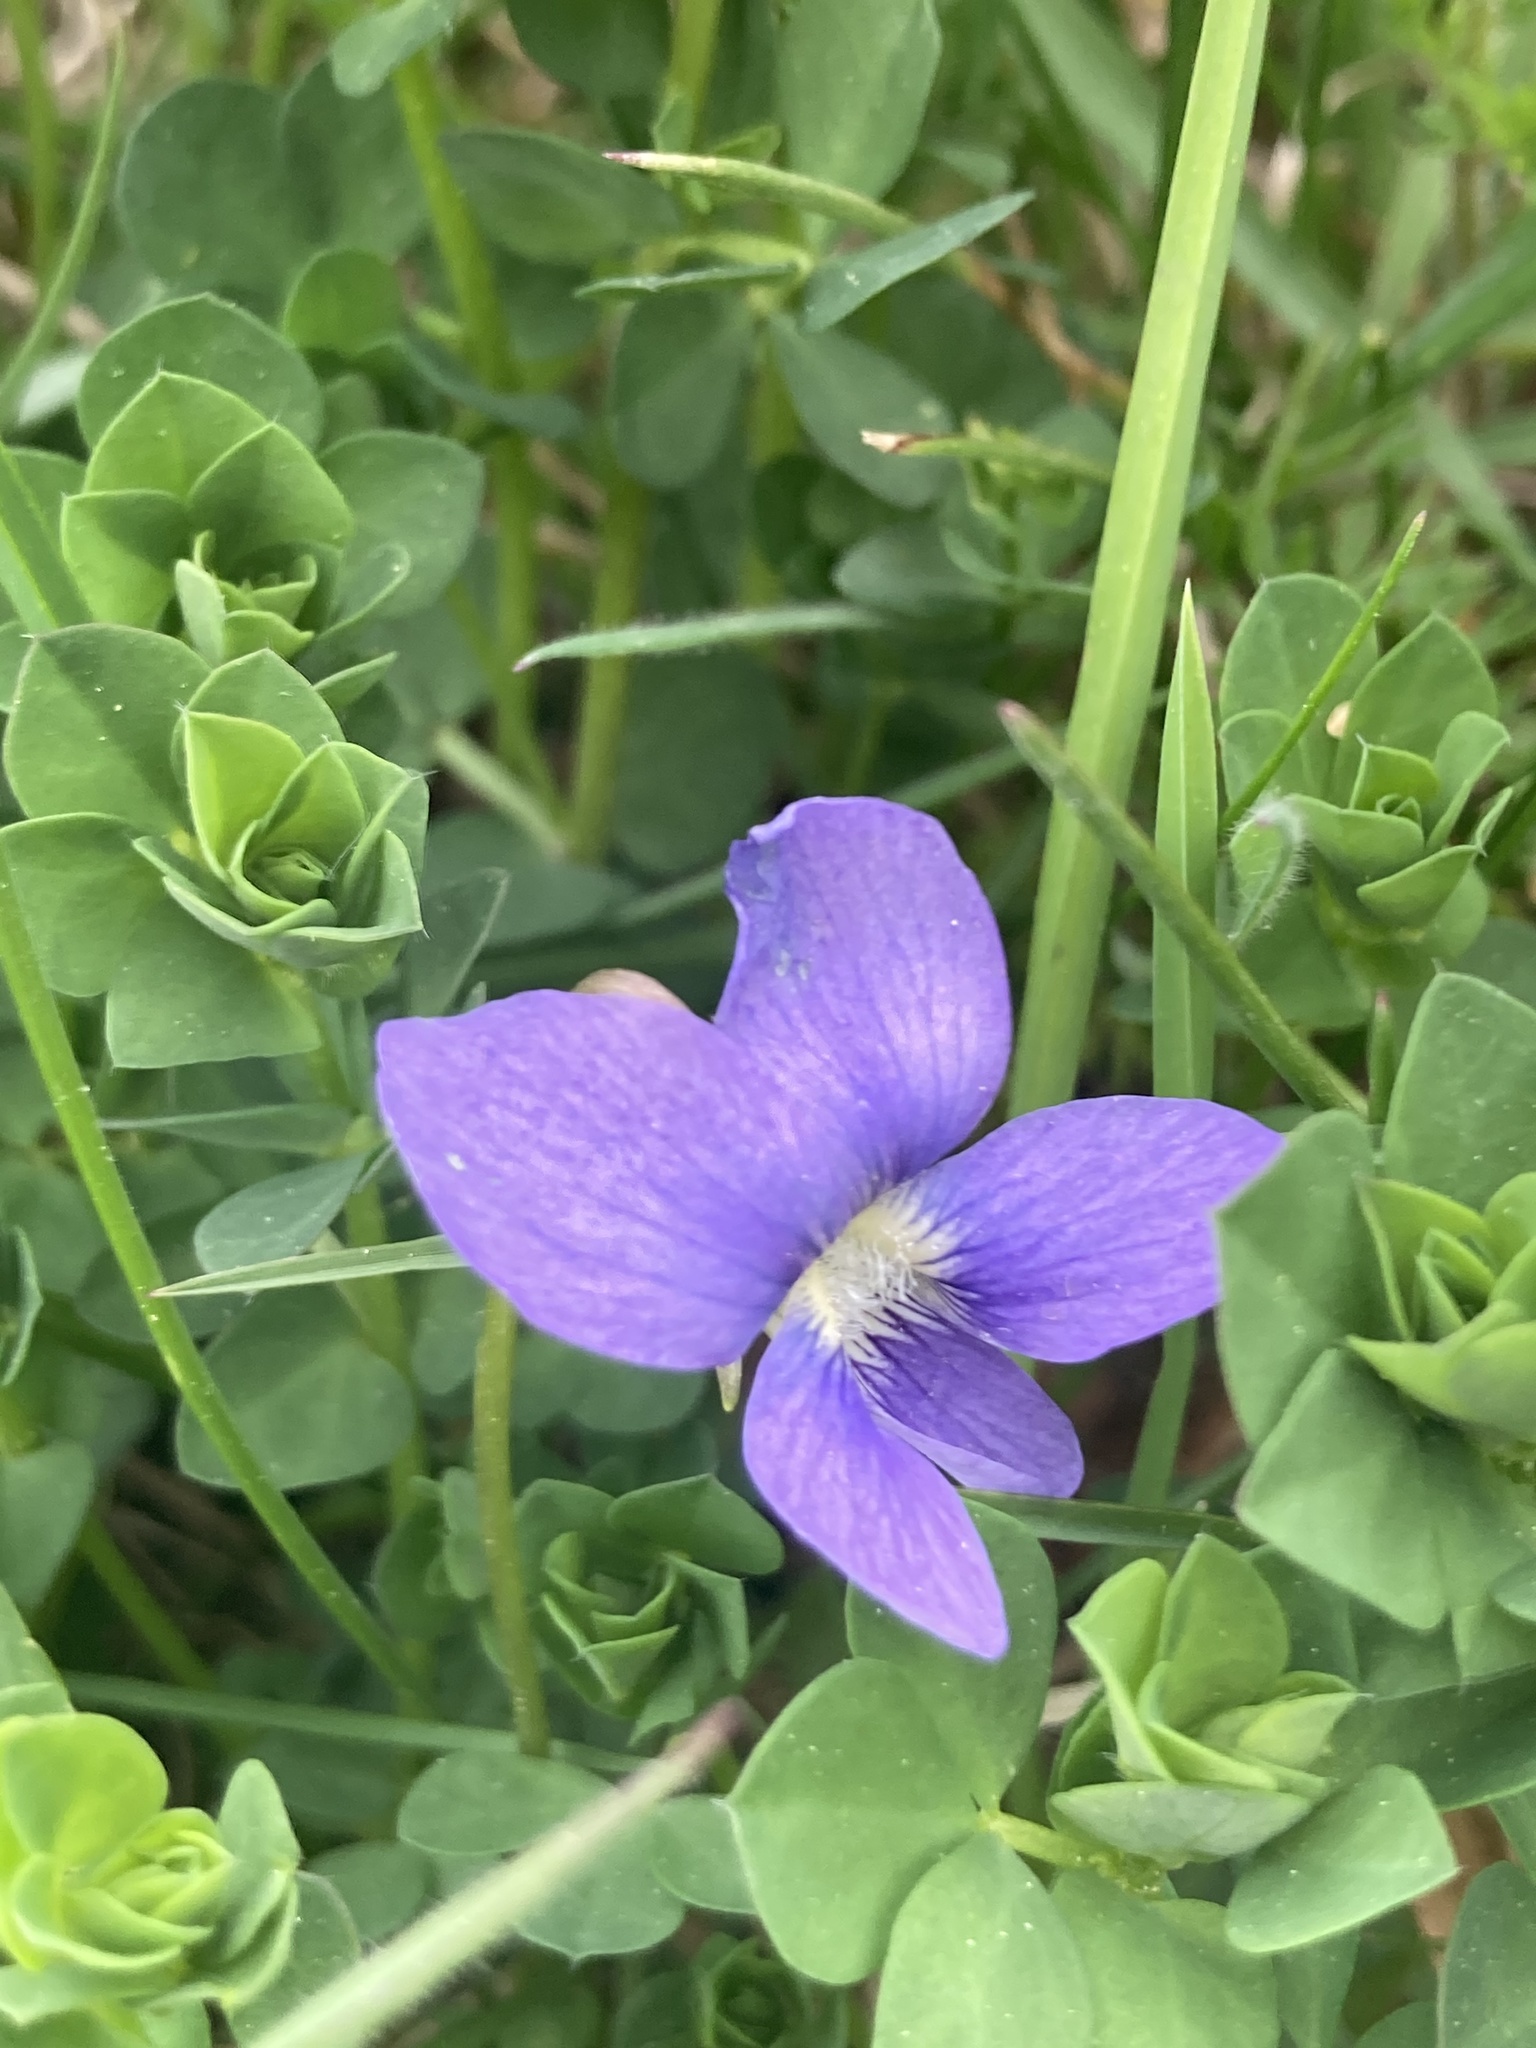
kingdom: Plantae
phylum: Tracheophyta
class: Magnoliopsida
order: Malpighiales
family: Violaceae
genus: Viola
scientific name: Viola sororia
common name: Dooryard violet
